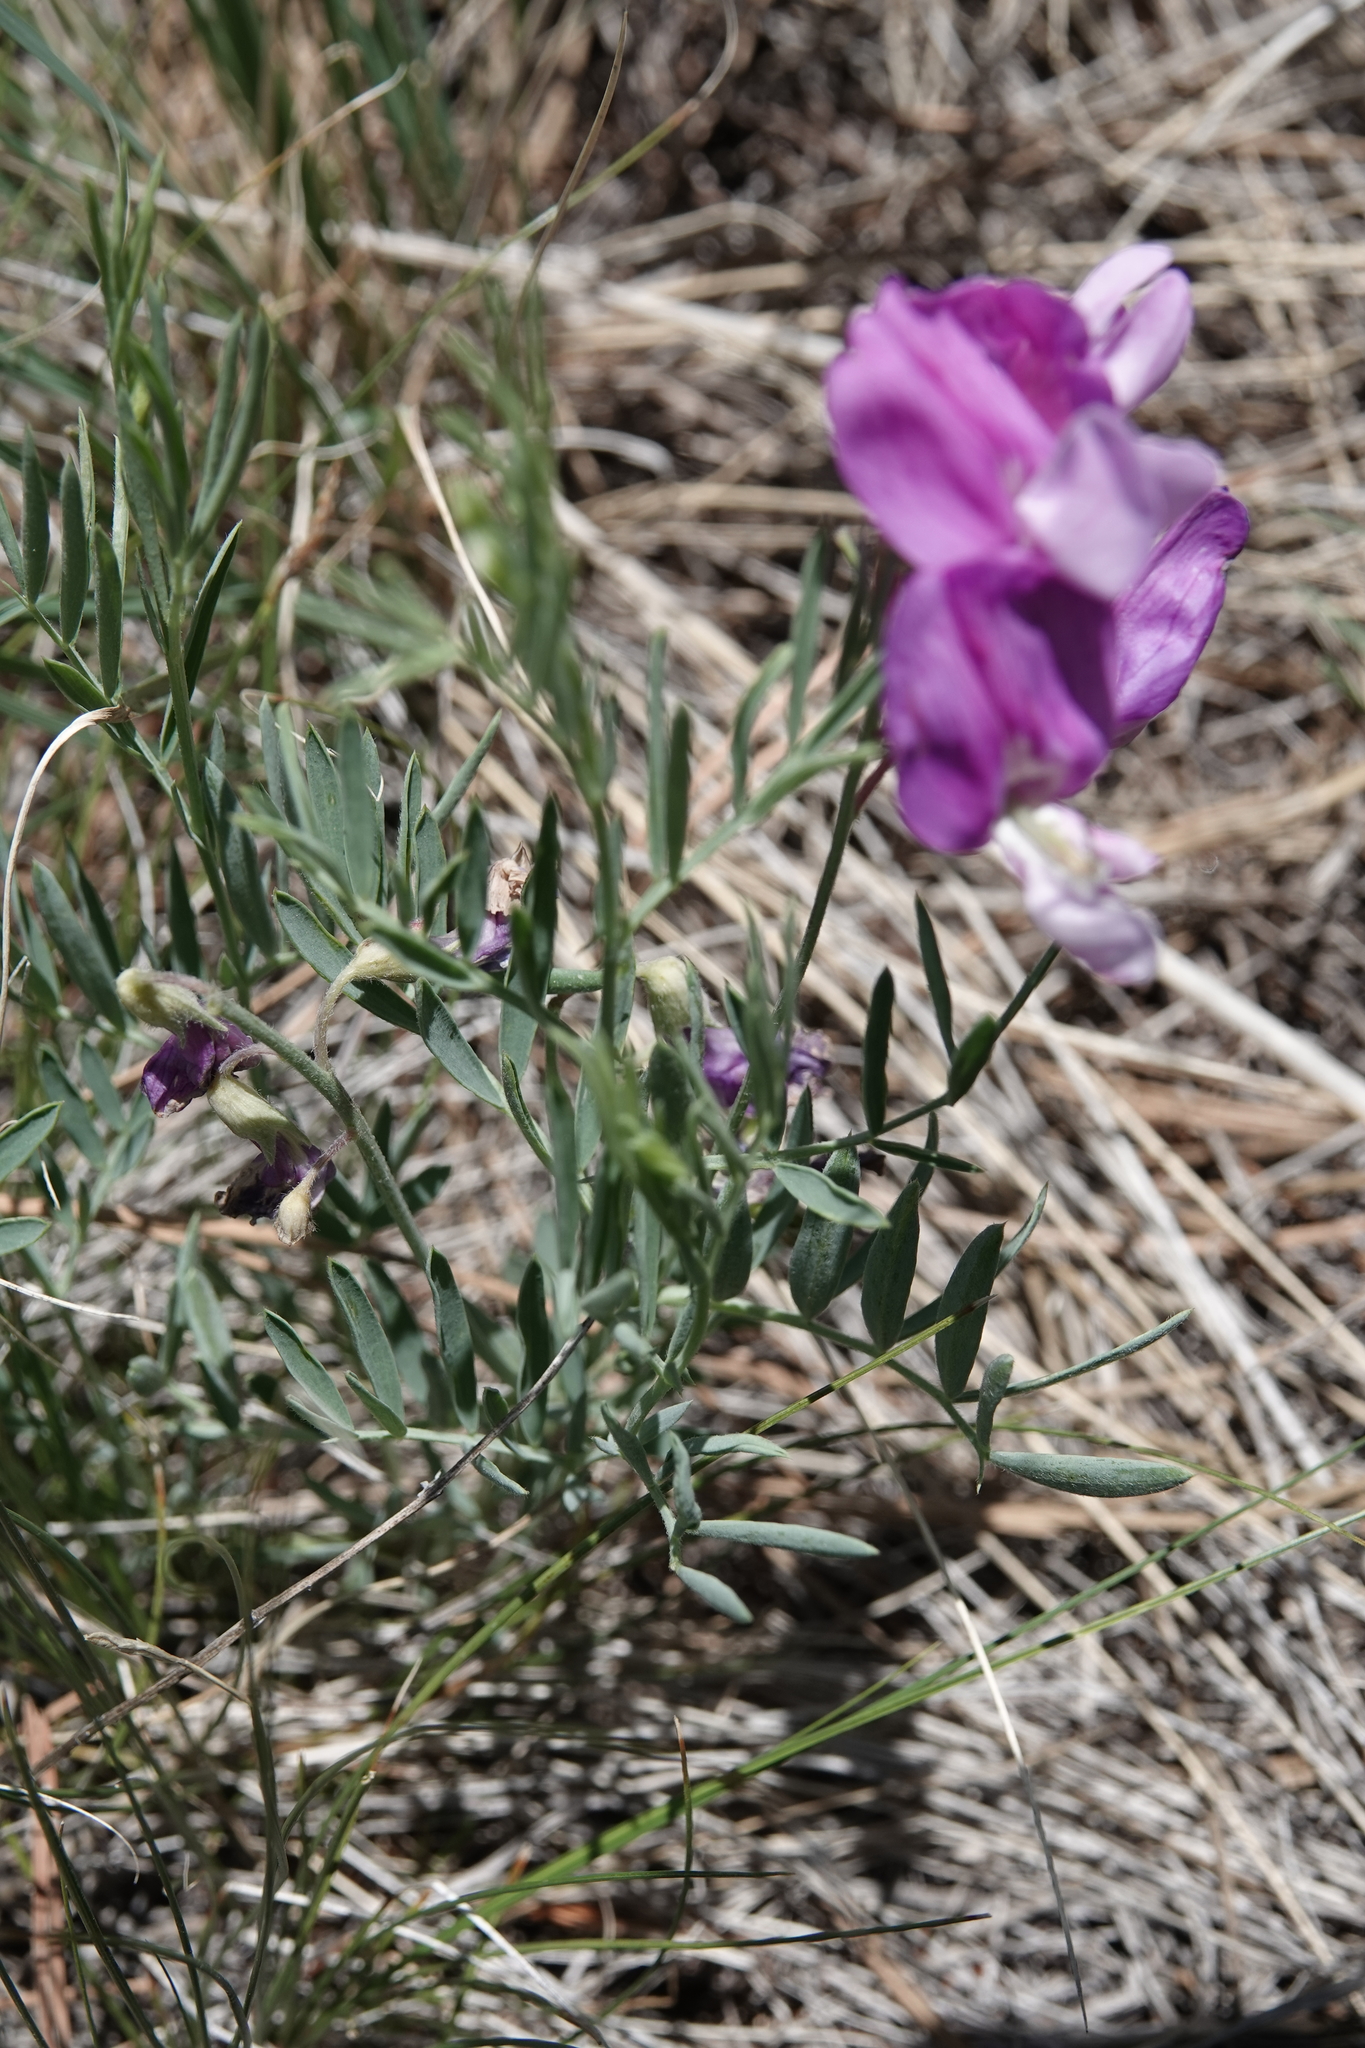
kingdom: Plantae
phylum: Tracheophyta
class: Magnoliopsida
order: Fabales
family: Fabaceae
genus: Lathyrus
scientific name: Lathyrus
